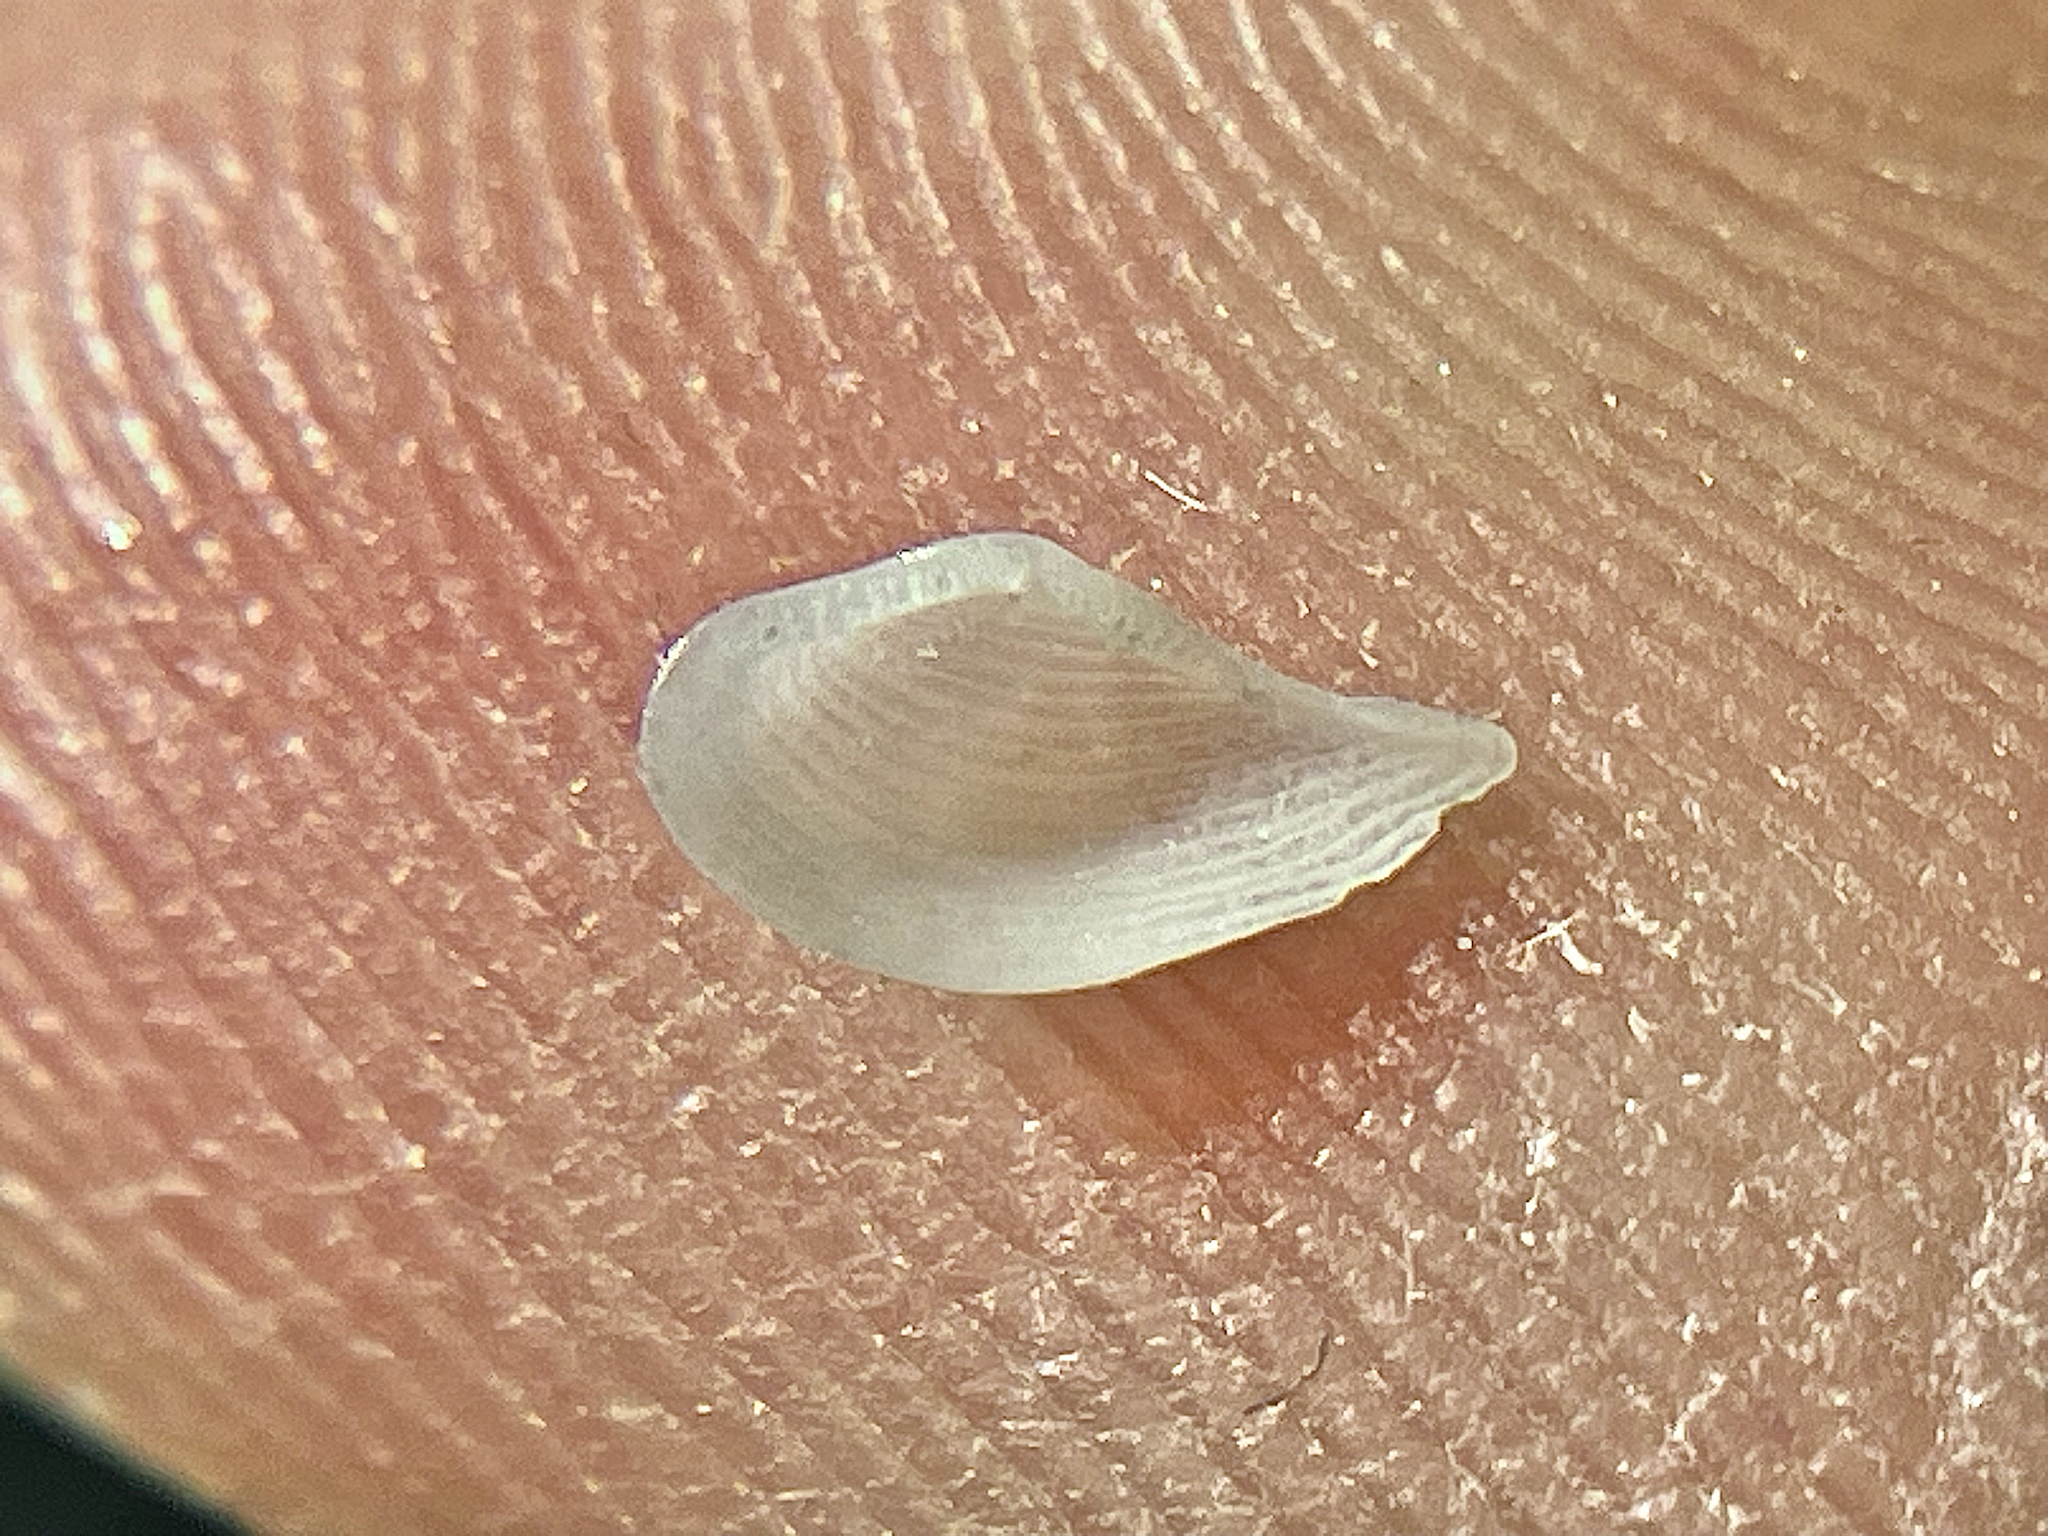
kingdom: Animalia
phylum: Mollusca
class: Bivalvia
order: Nuculanida
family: Nuculanidae
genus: Nuculana
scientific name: Nuculana acuta
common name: Pointed nut clam
